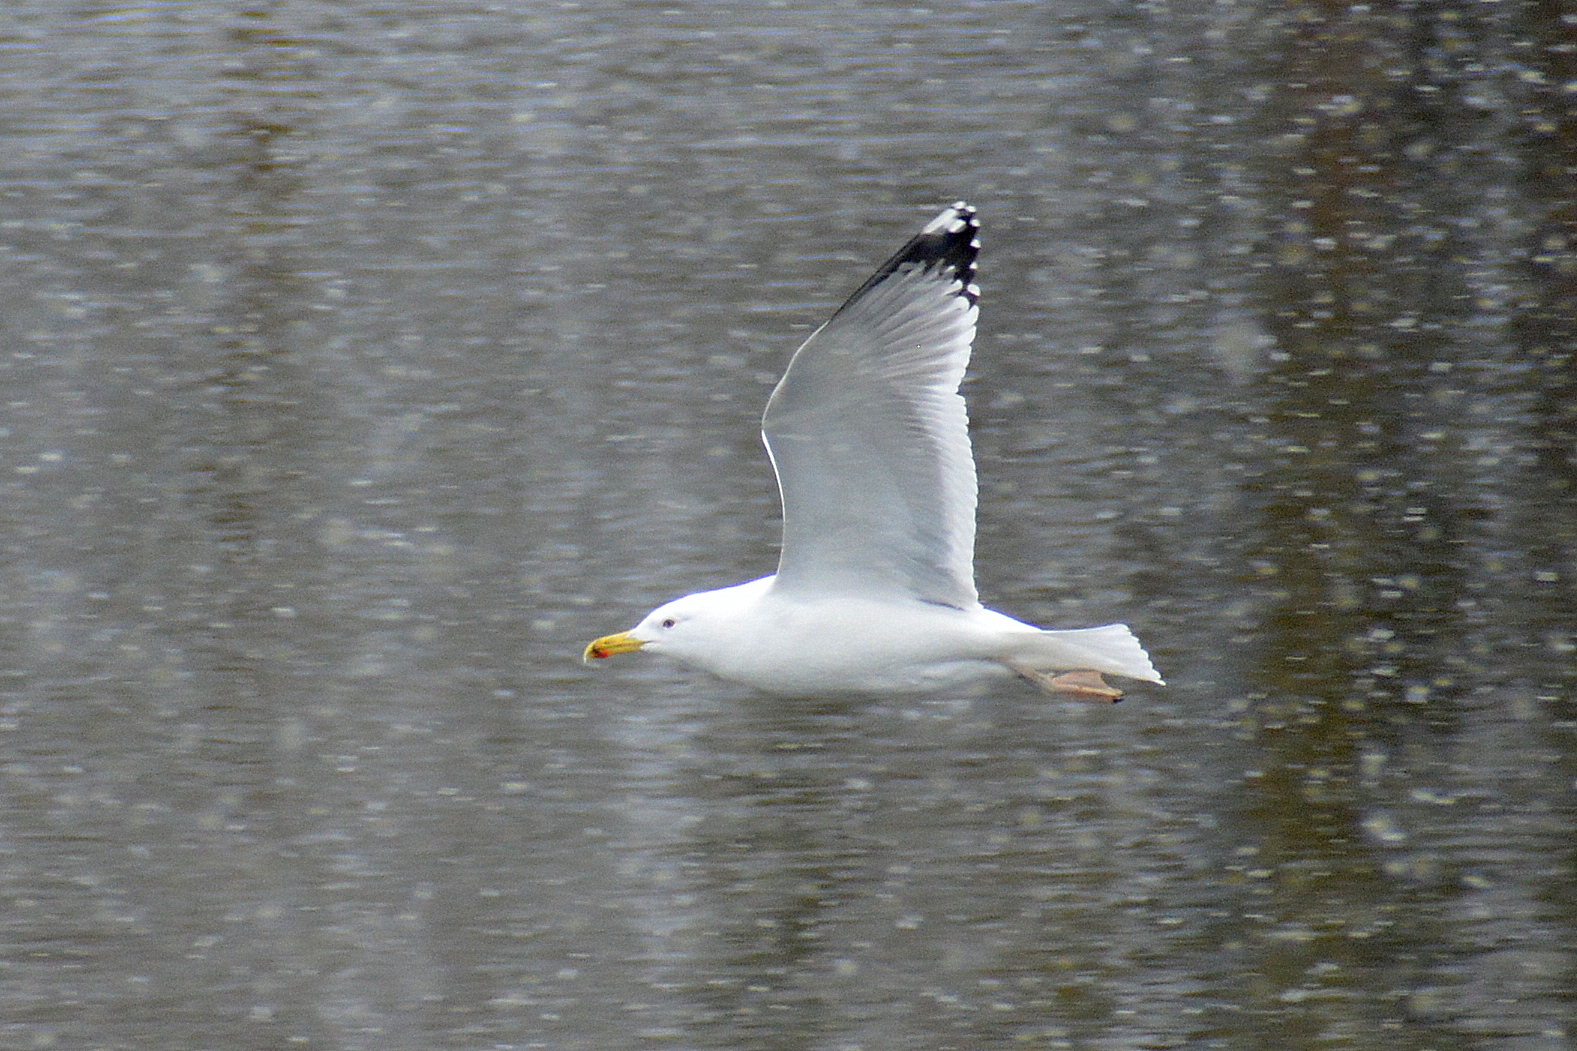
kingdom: Animalia
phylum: Chordata
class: Aves
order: Charadriiformes
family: Laridae
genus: Larus
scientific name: Larus cachinnans
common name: Caspian gull
